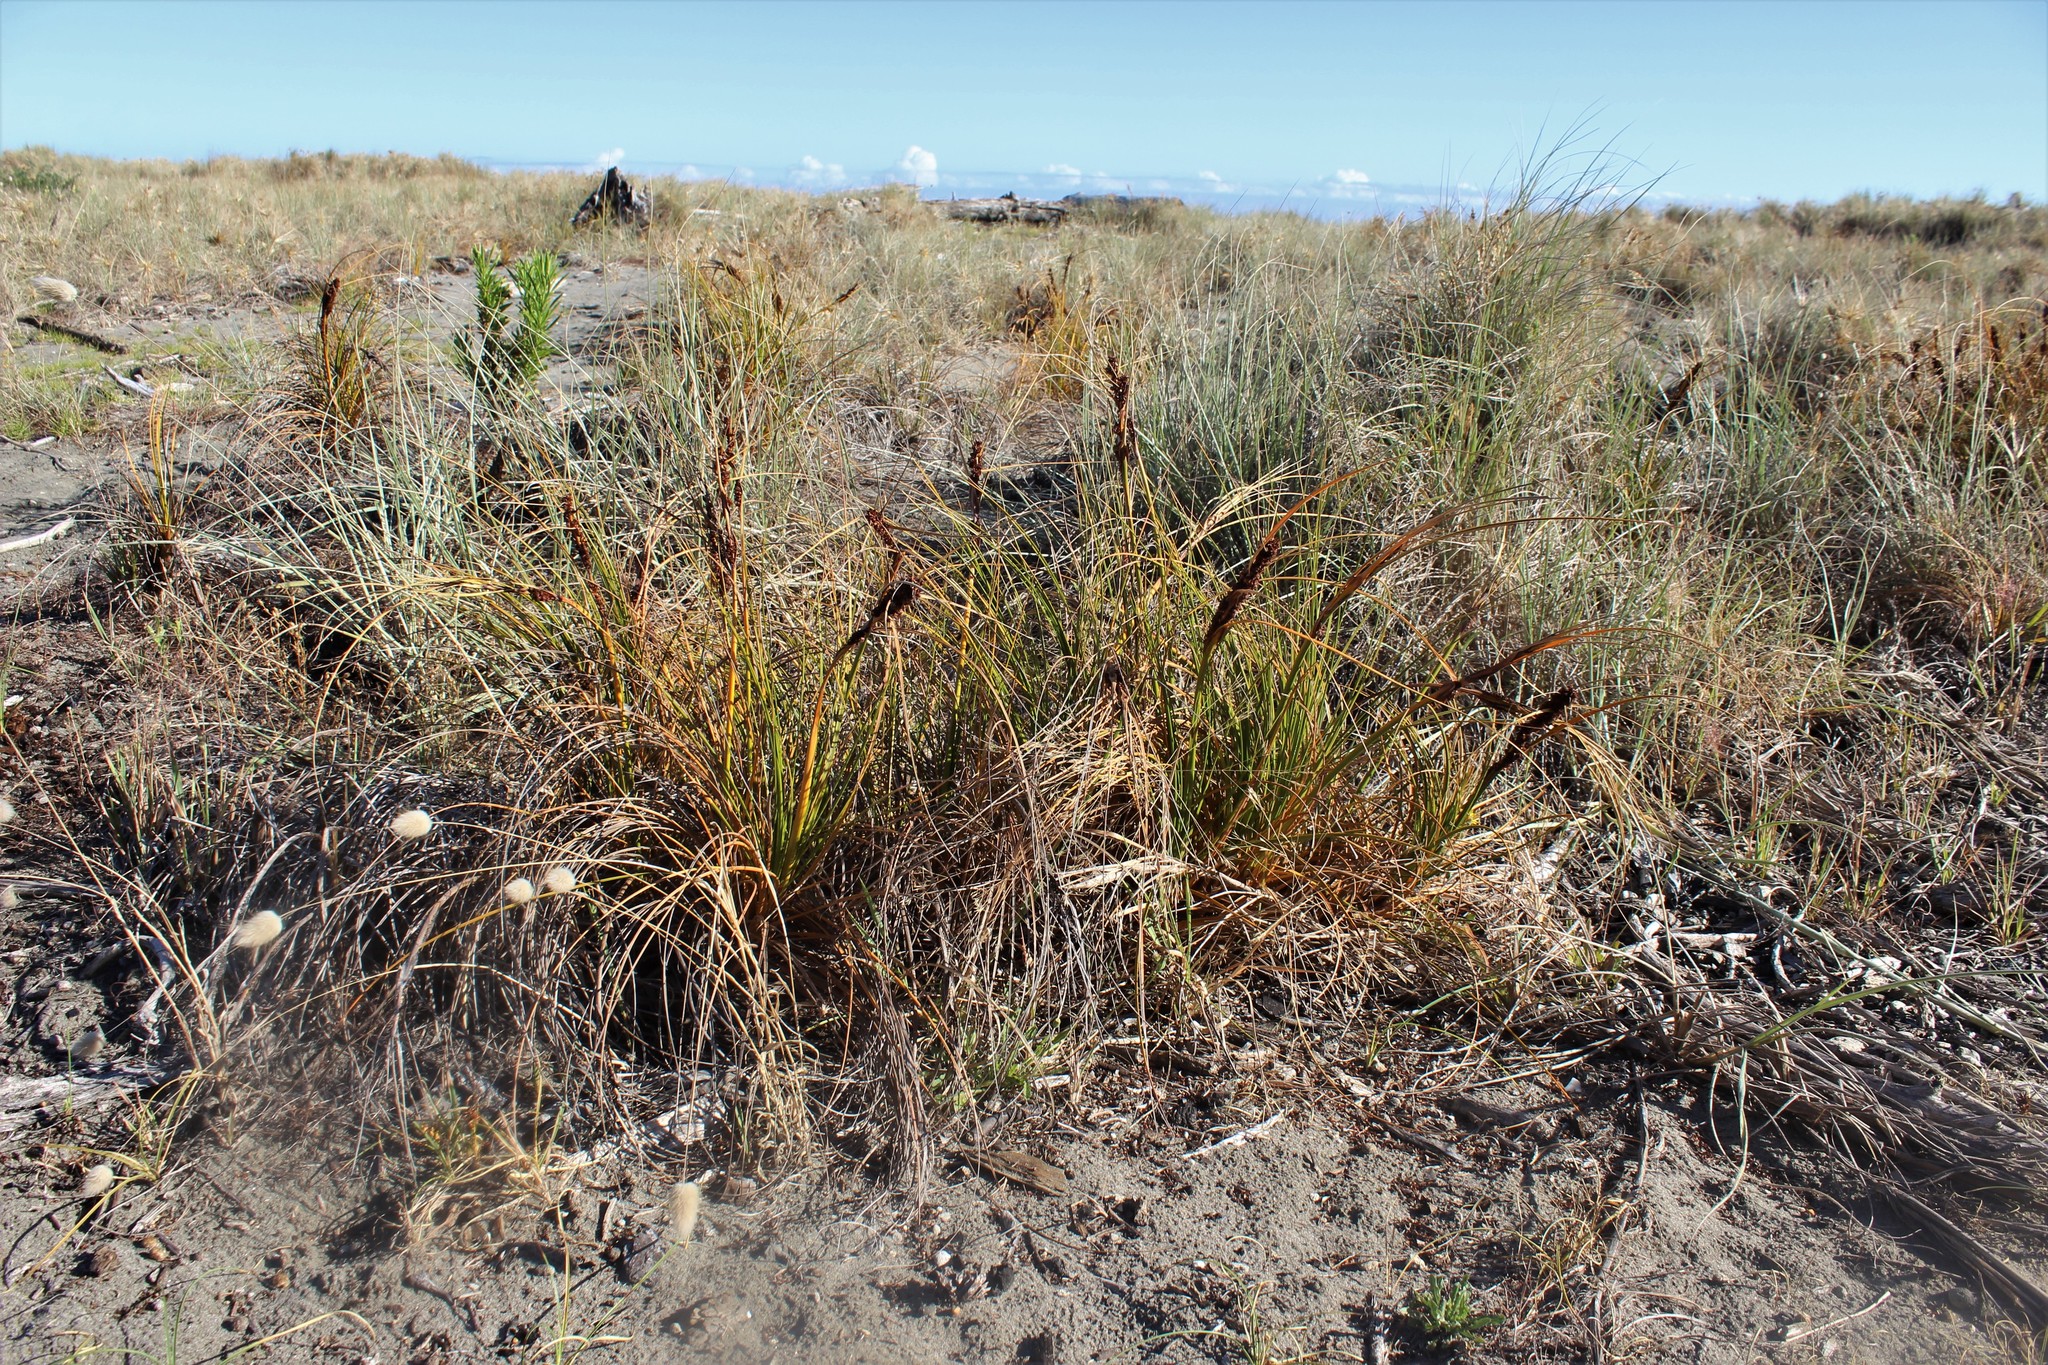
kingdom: Plantae
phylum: Tracheophyta
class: Liliopsida
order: Poales
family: Cyperaceae
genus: Ficinia
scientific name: Ficinia spiralis
